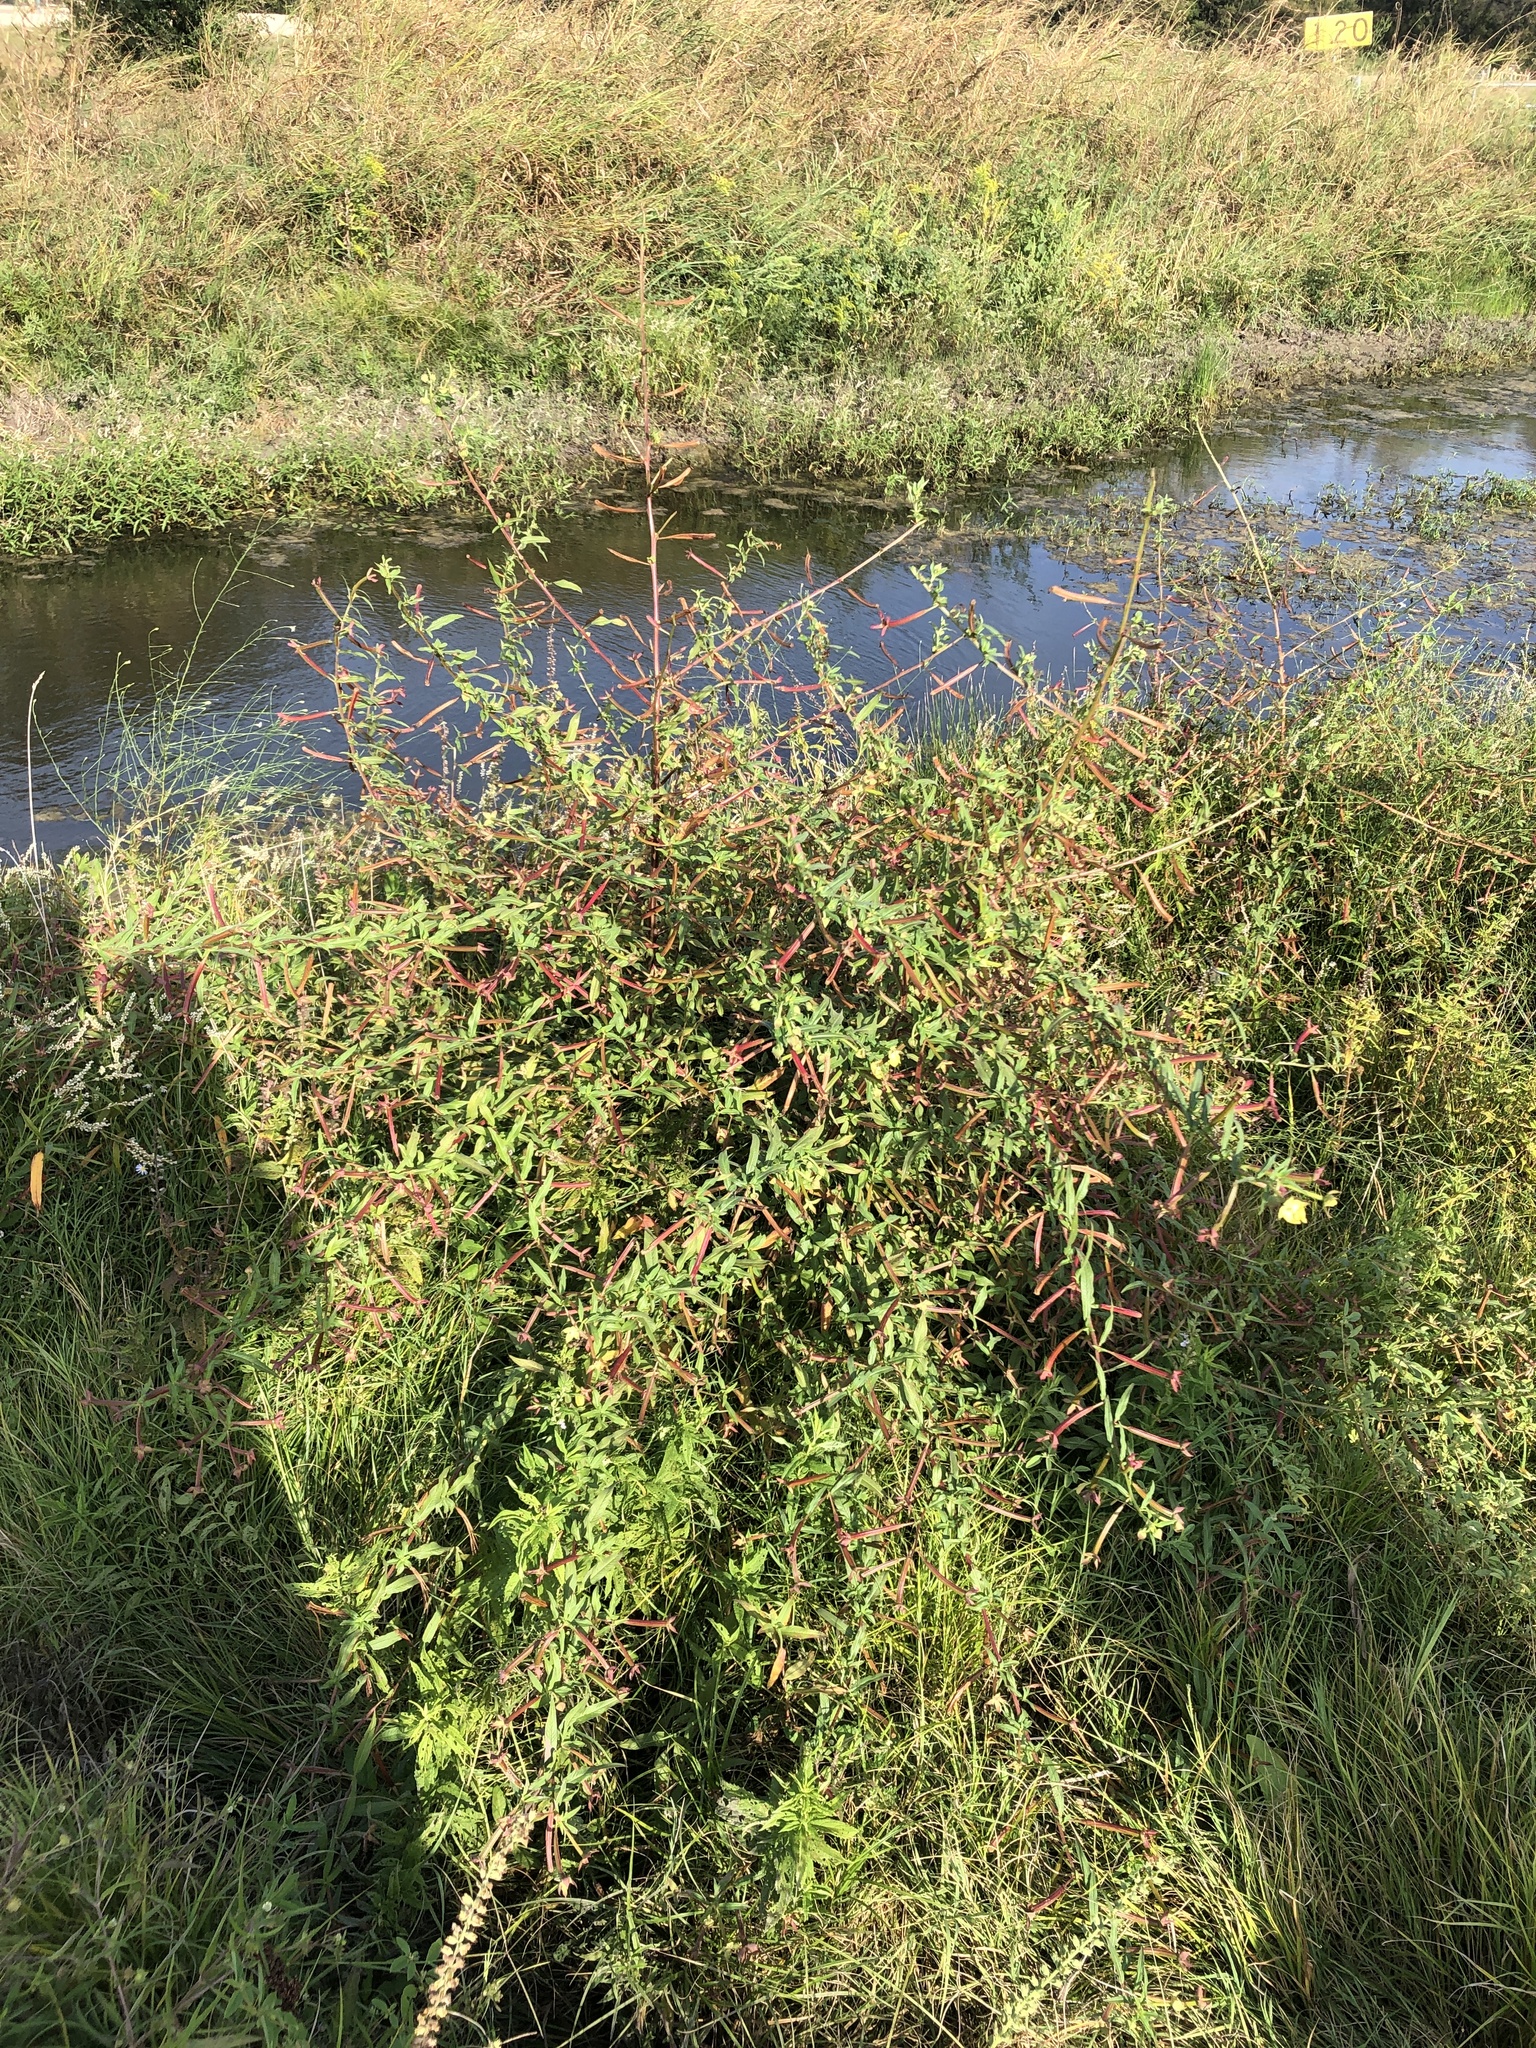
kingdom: Plantae
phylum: Tracheophyta
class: Magnoliopsida
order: Myrtales
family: Onagraceae
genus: Ludwigia
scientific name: Ludwigia octovalvis
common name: Water-primrose
